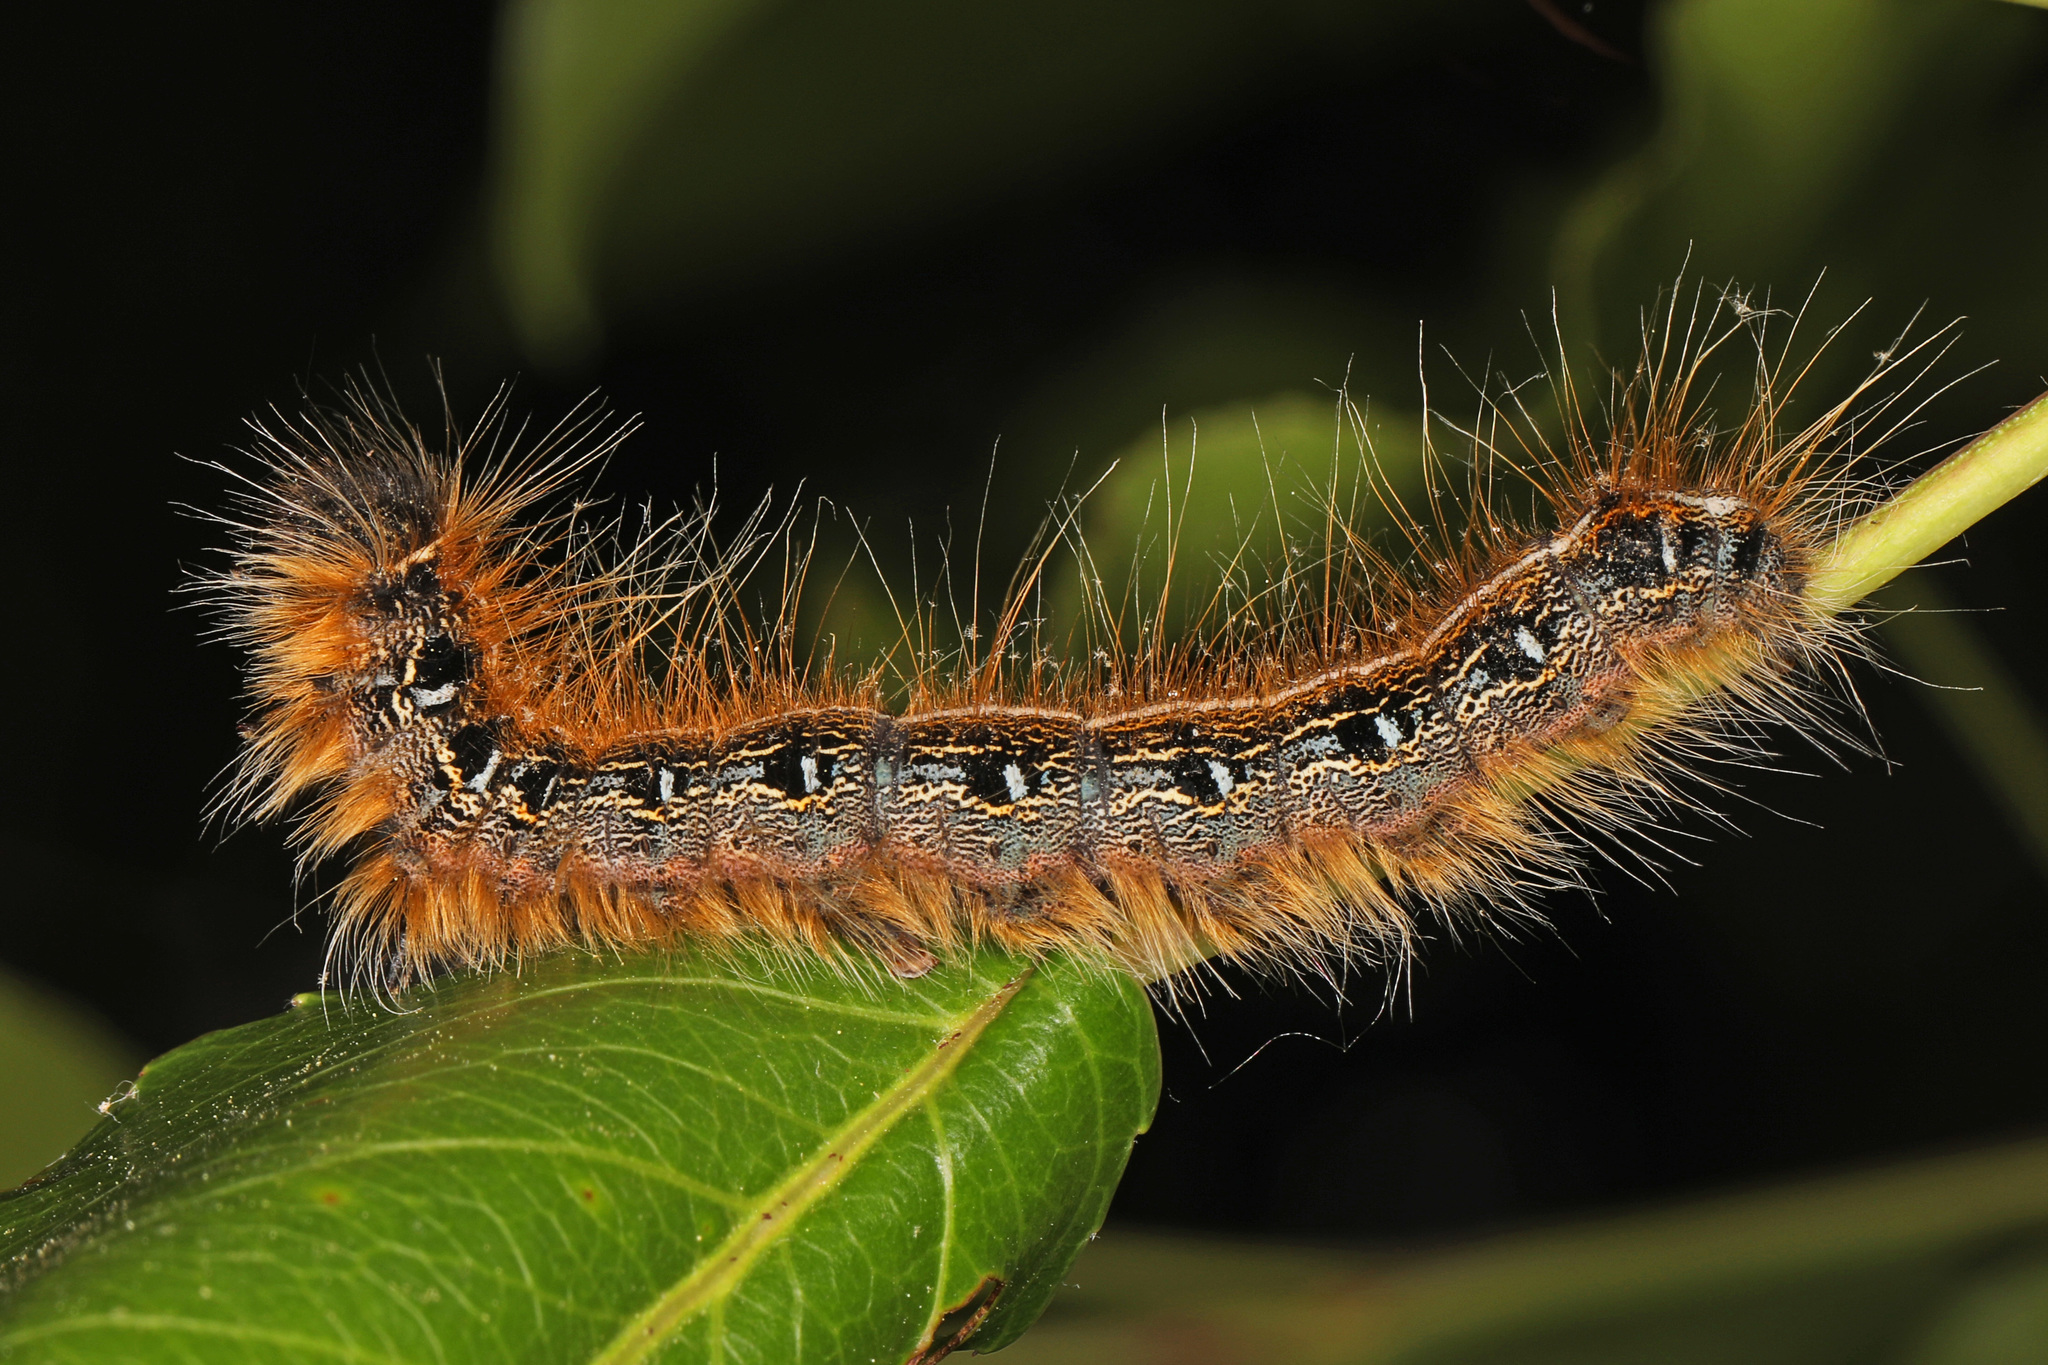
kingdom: Animalia
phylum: Arthropoda
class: Insecta
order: Lepidoptera
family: Lasiocampidae
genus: Malacosoma
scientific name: Malacosoma americana
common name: Eastern tent caterpillar moth
